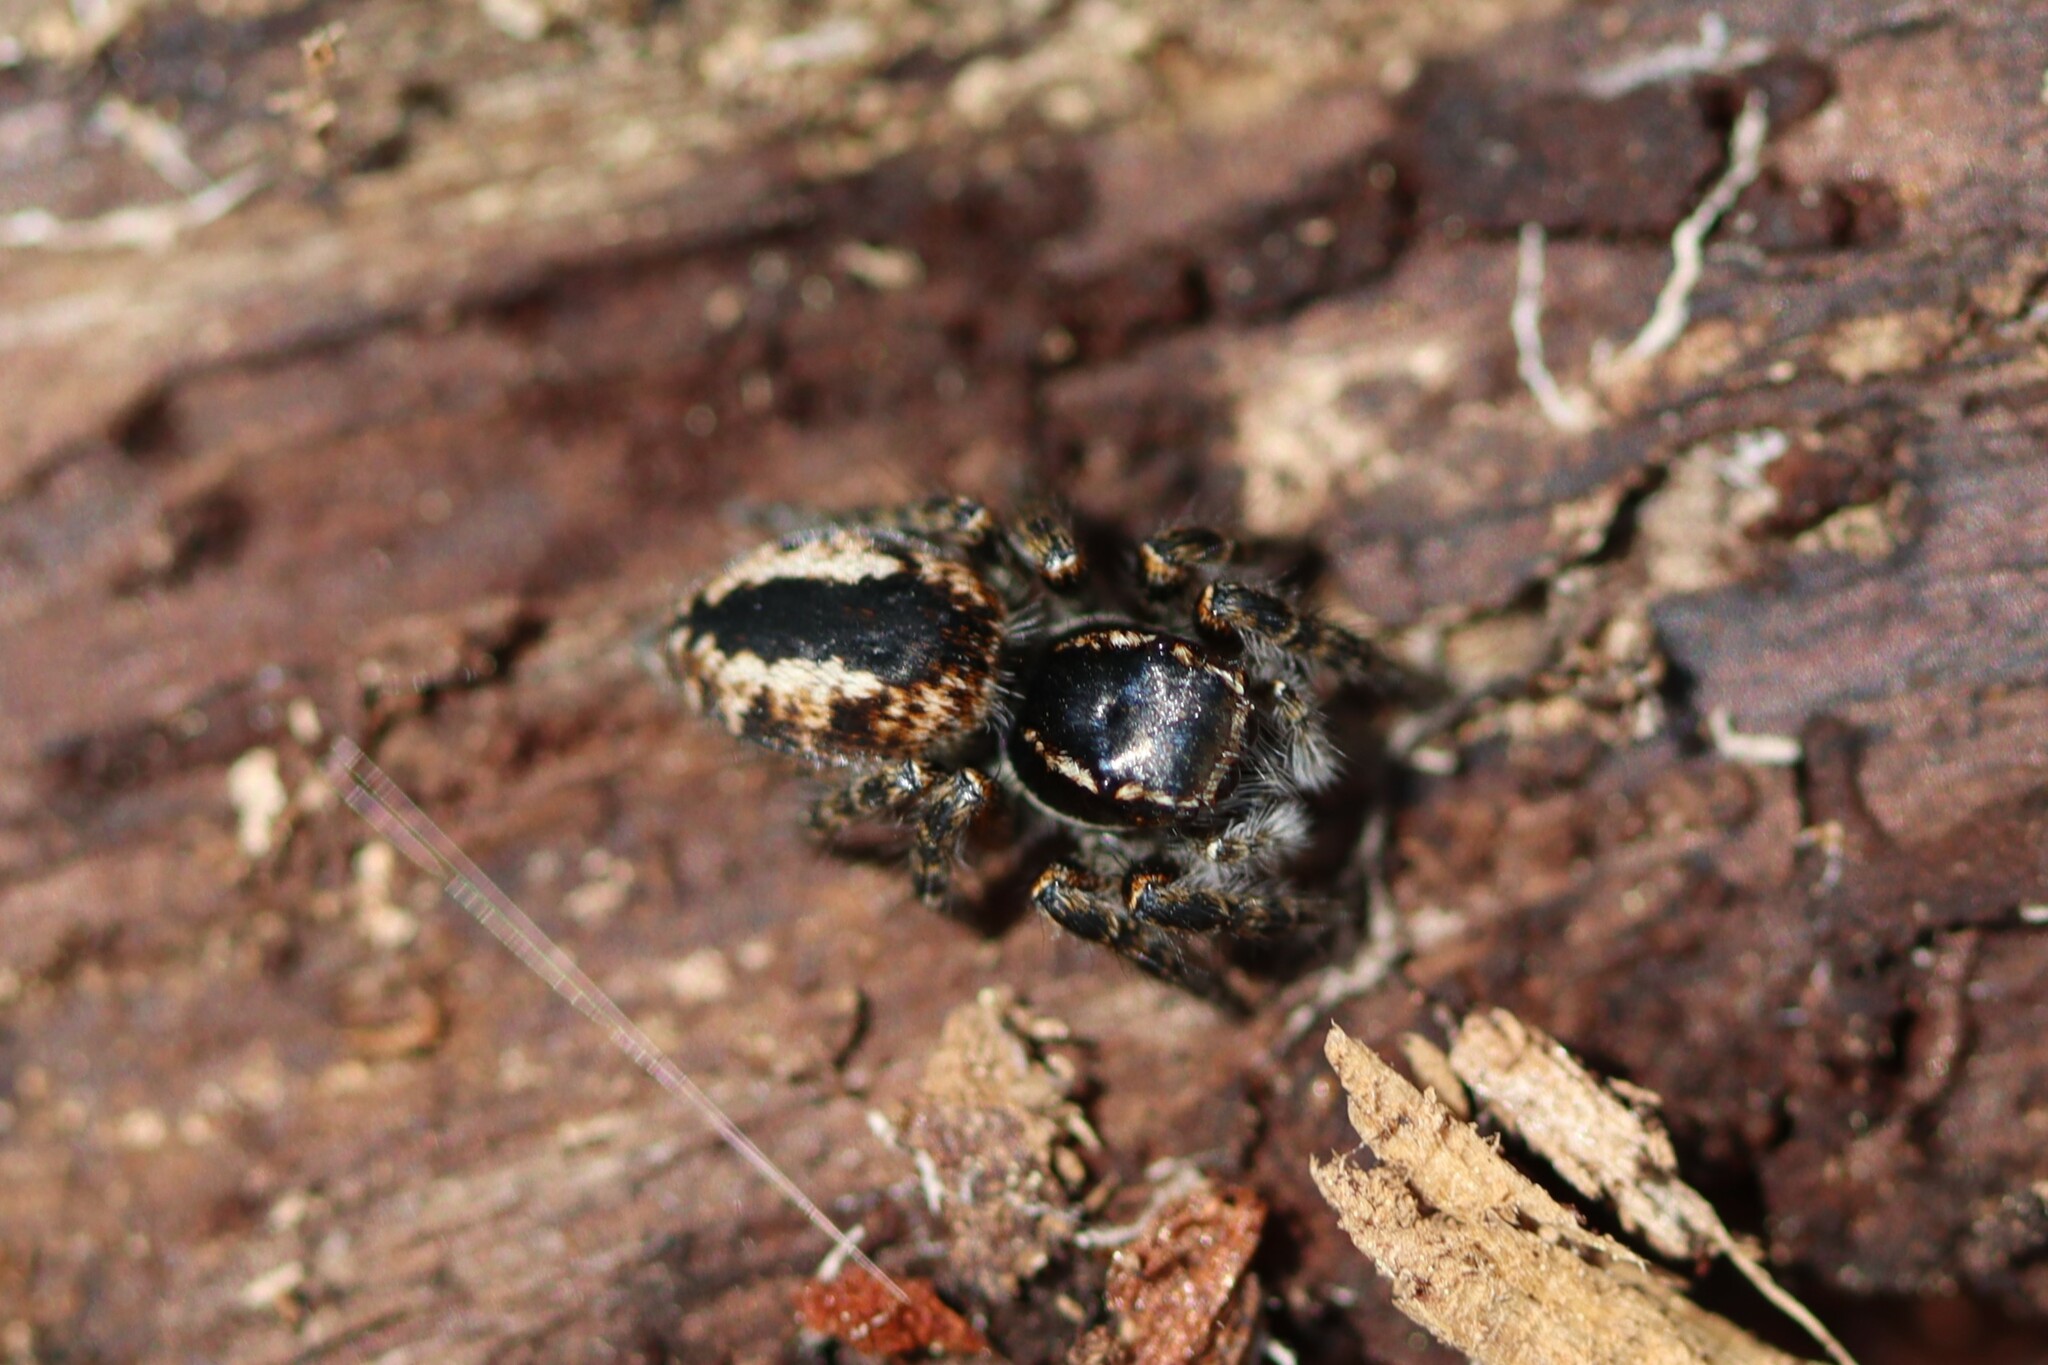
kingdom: Animalia
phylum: Arthropoda
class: Arachnida
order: Araneae
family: Salticidae
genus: Philaeus
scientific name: Philaeus chrysops
